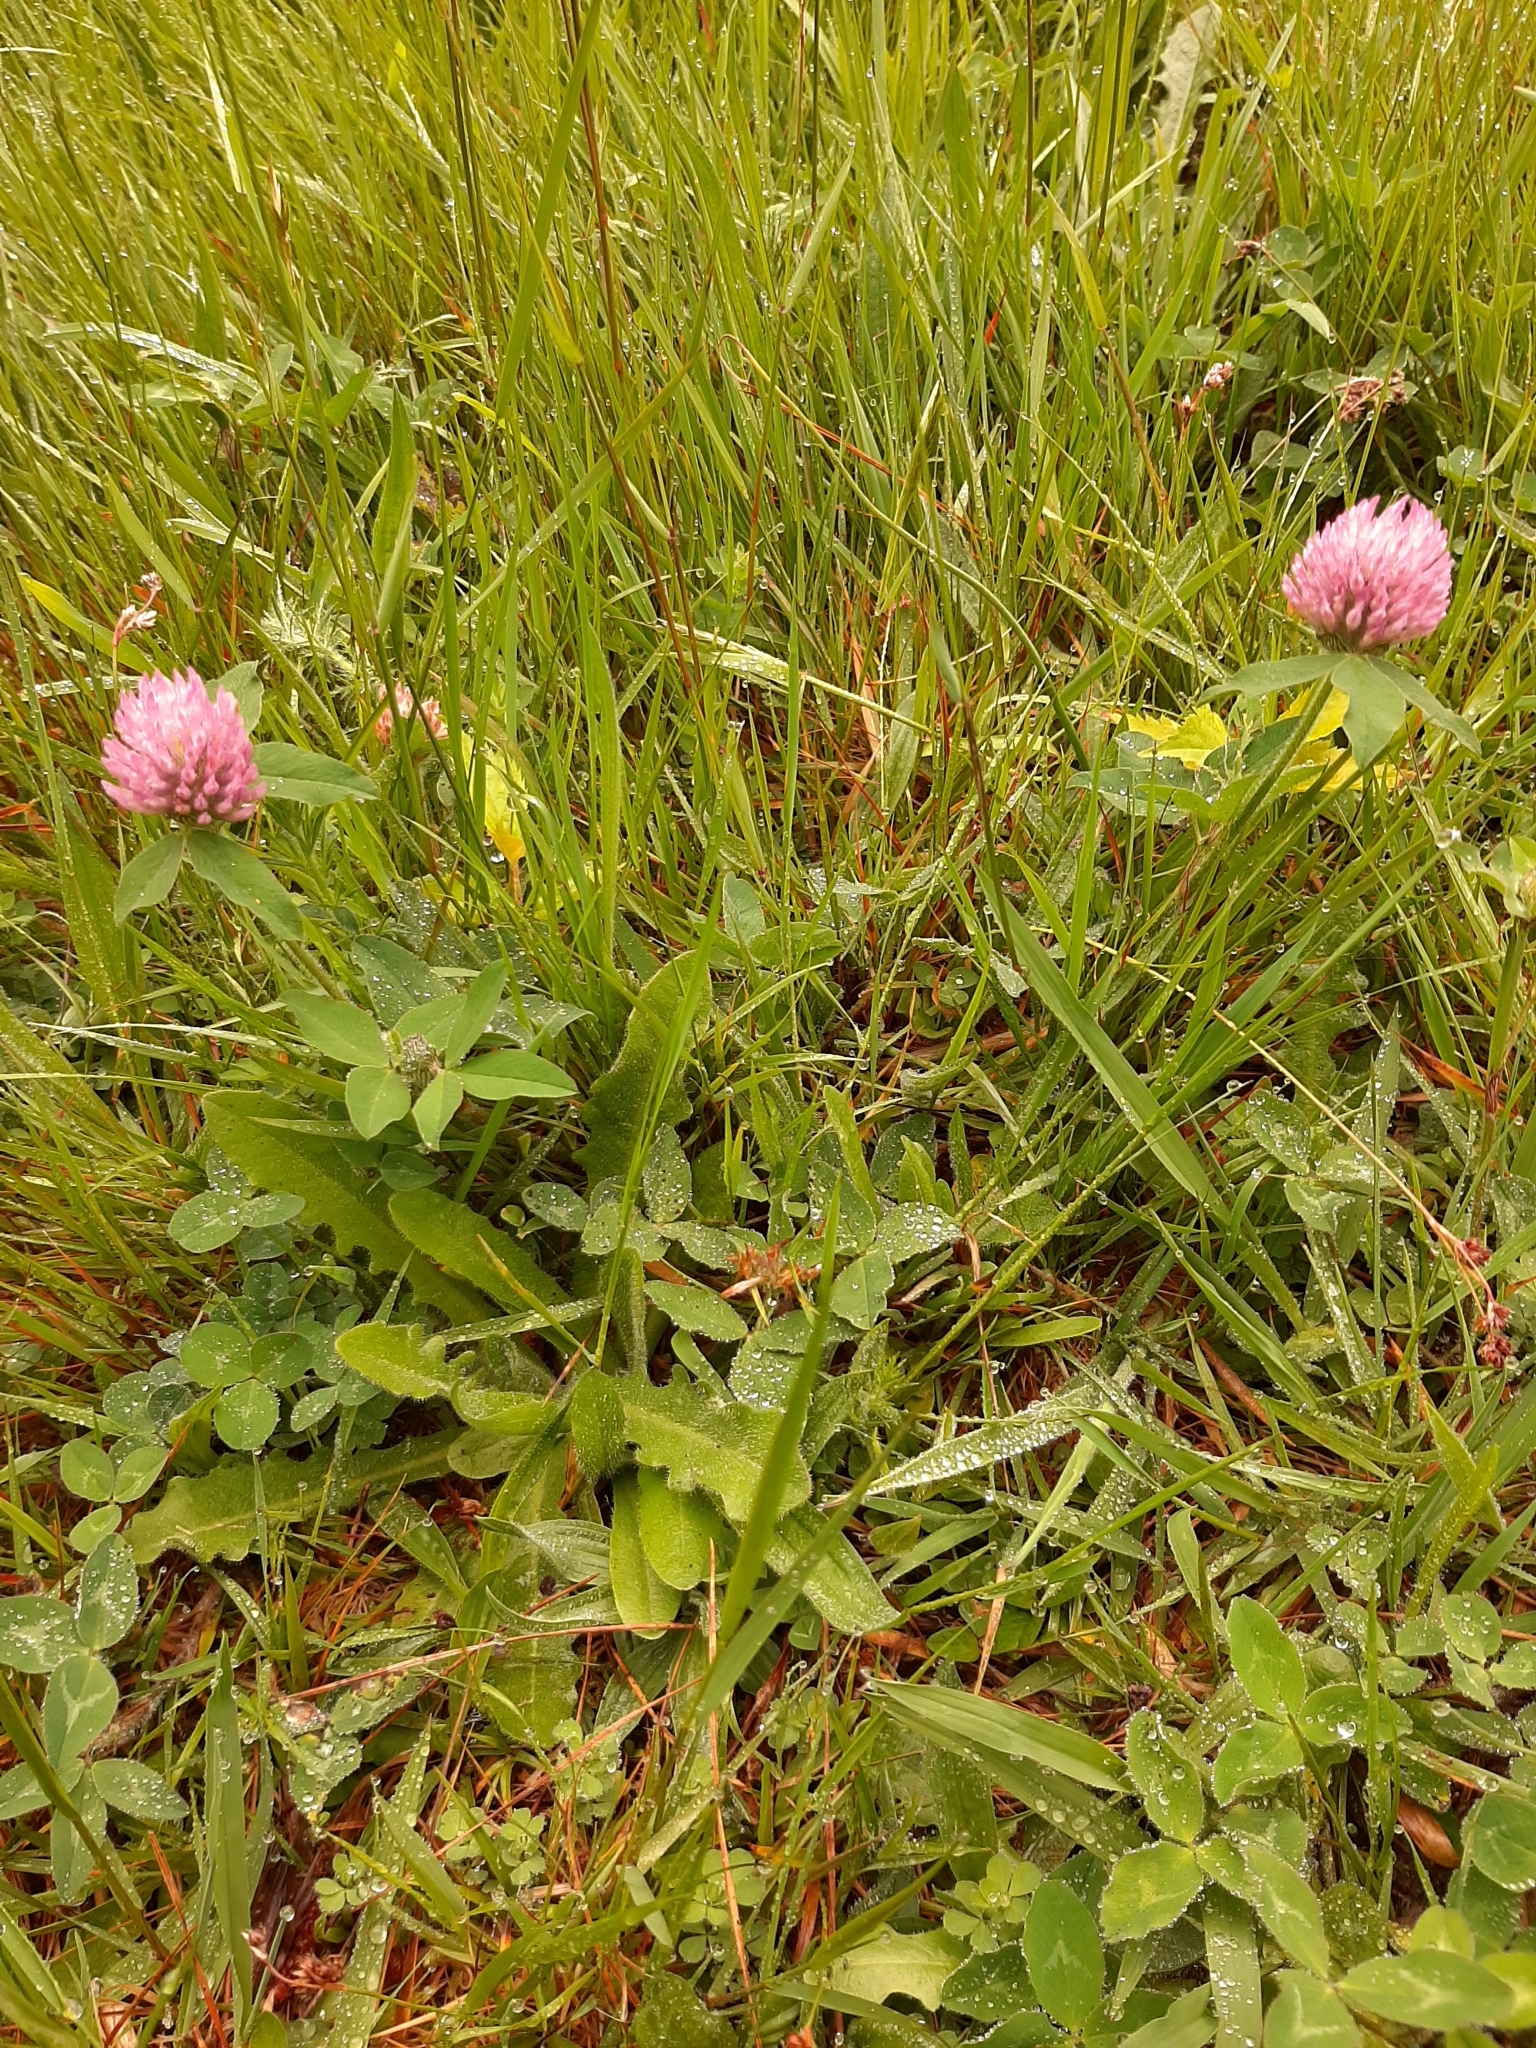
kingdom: Plantae
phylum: Tracheophyta
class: Magnoliopsida
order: Fabales
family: Fabaceae
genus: Trifolium
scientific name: Trifolium pratense
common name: Red clover
